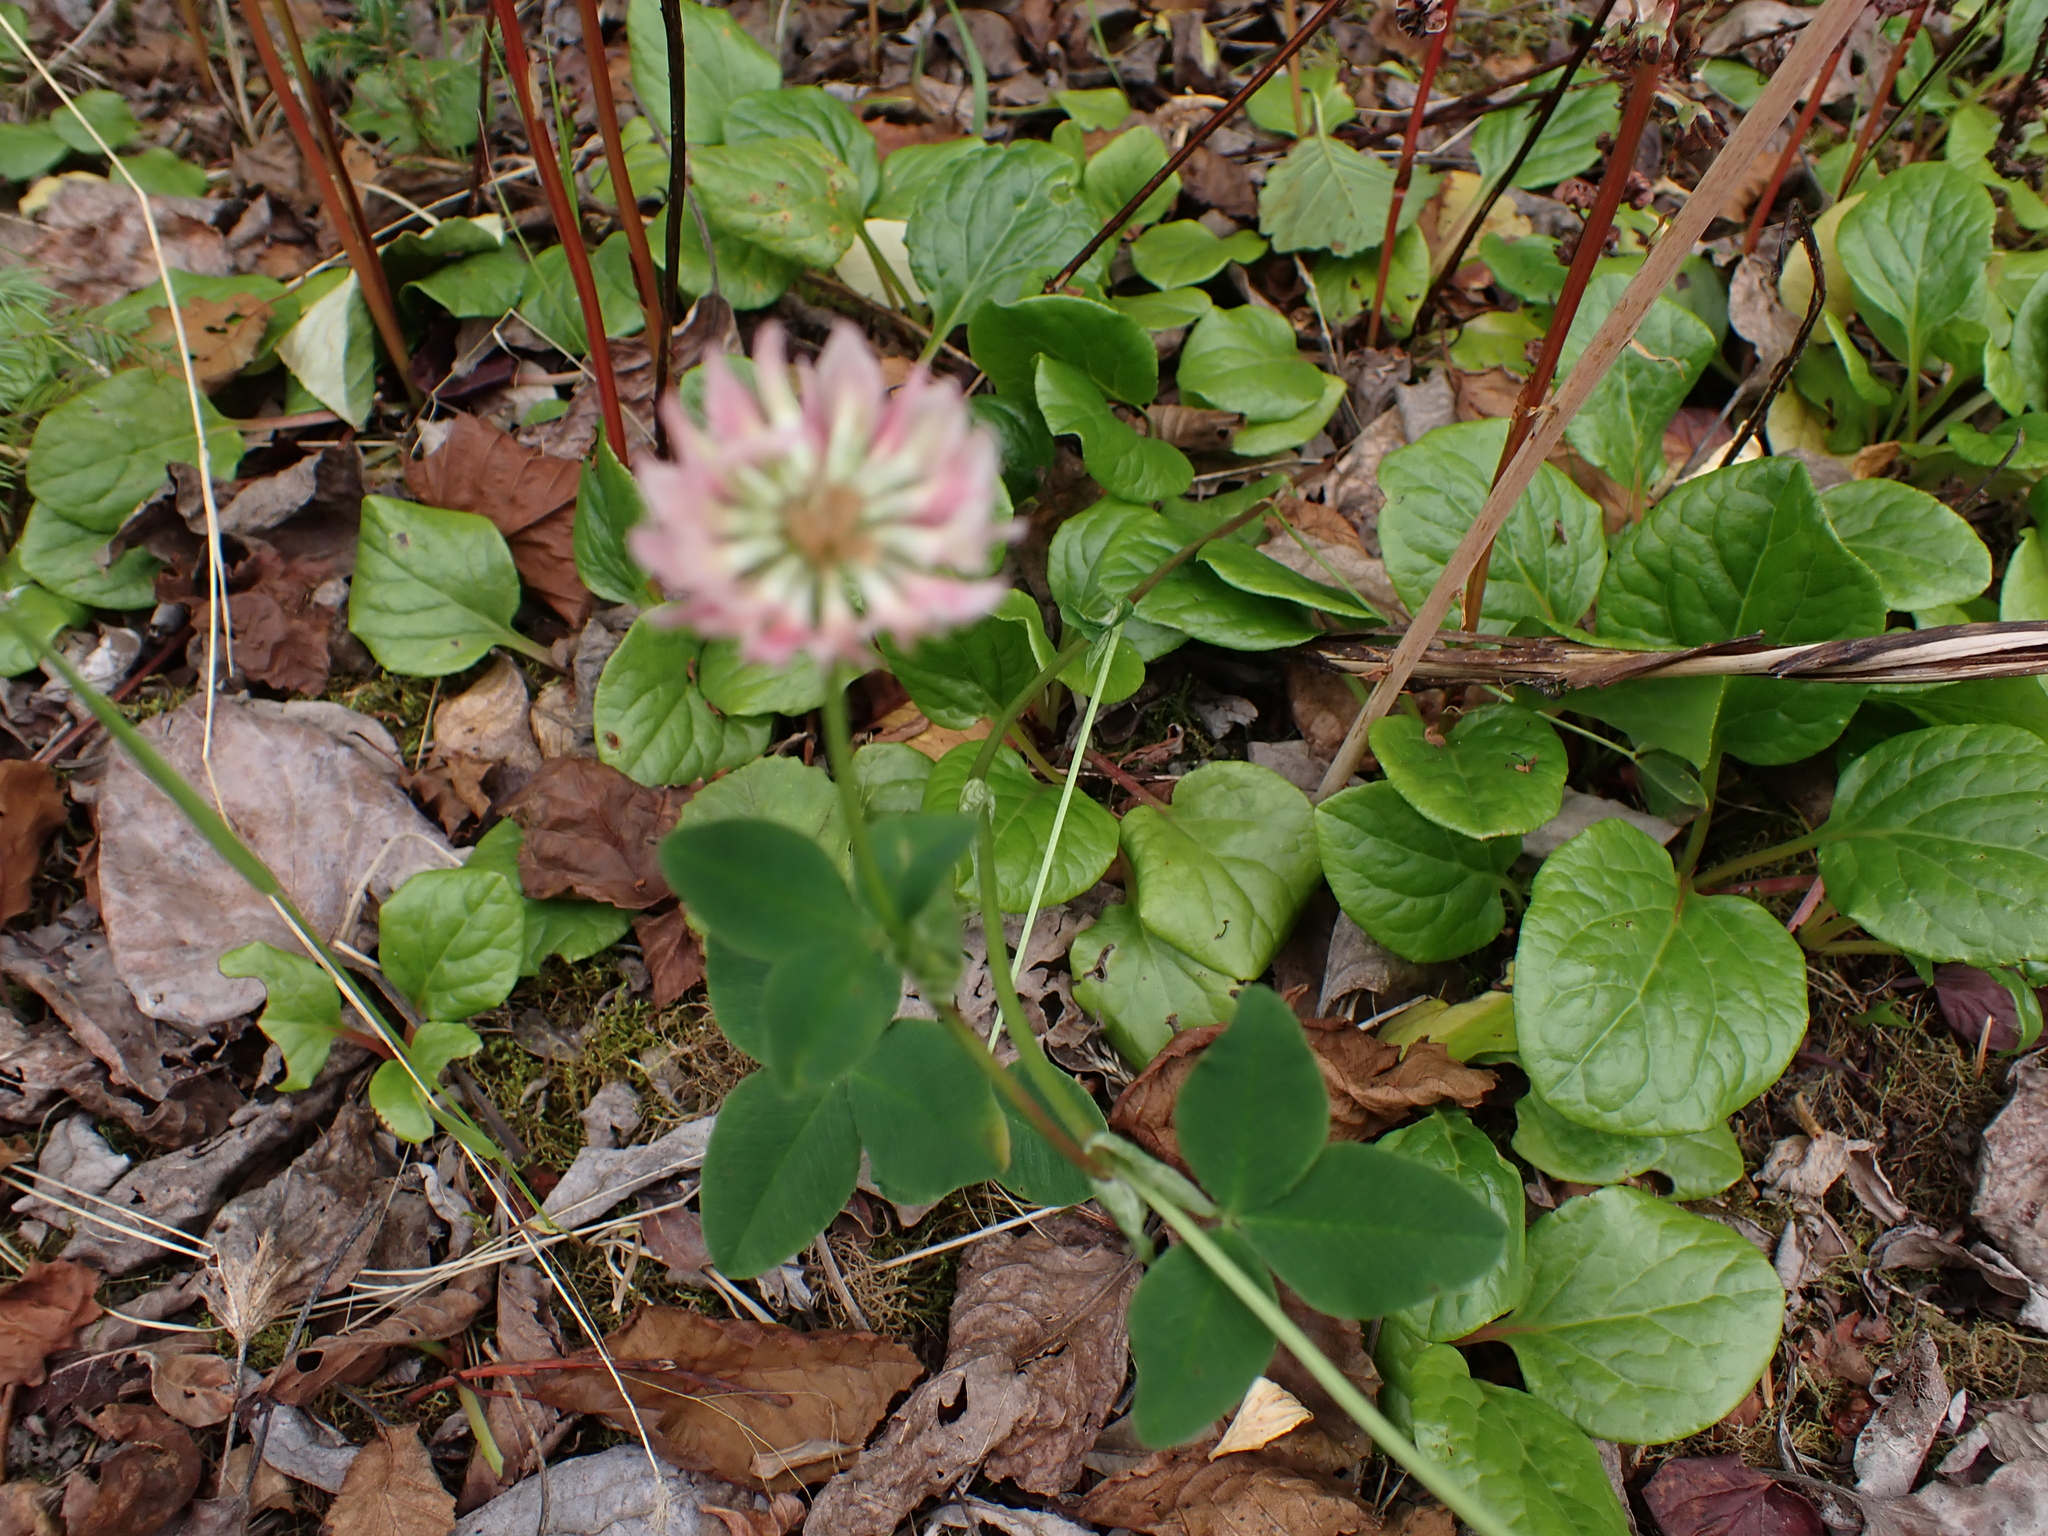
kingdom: Plantae
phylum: Tracheophyta
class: Magnoliopsida
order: Fabales
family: Fabaceae
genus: Trifolium
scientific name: Trifolium hybridum
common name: Alsike clover
